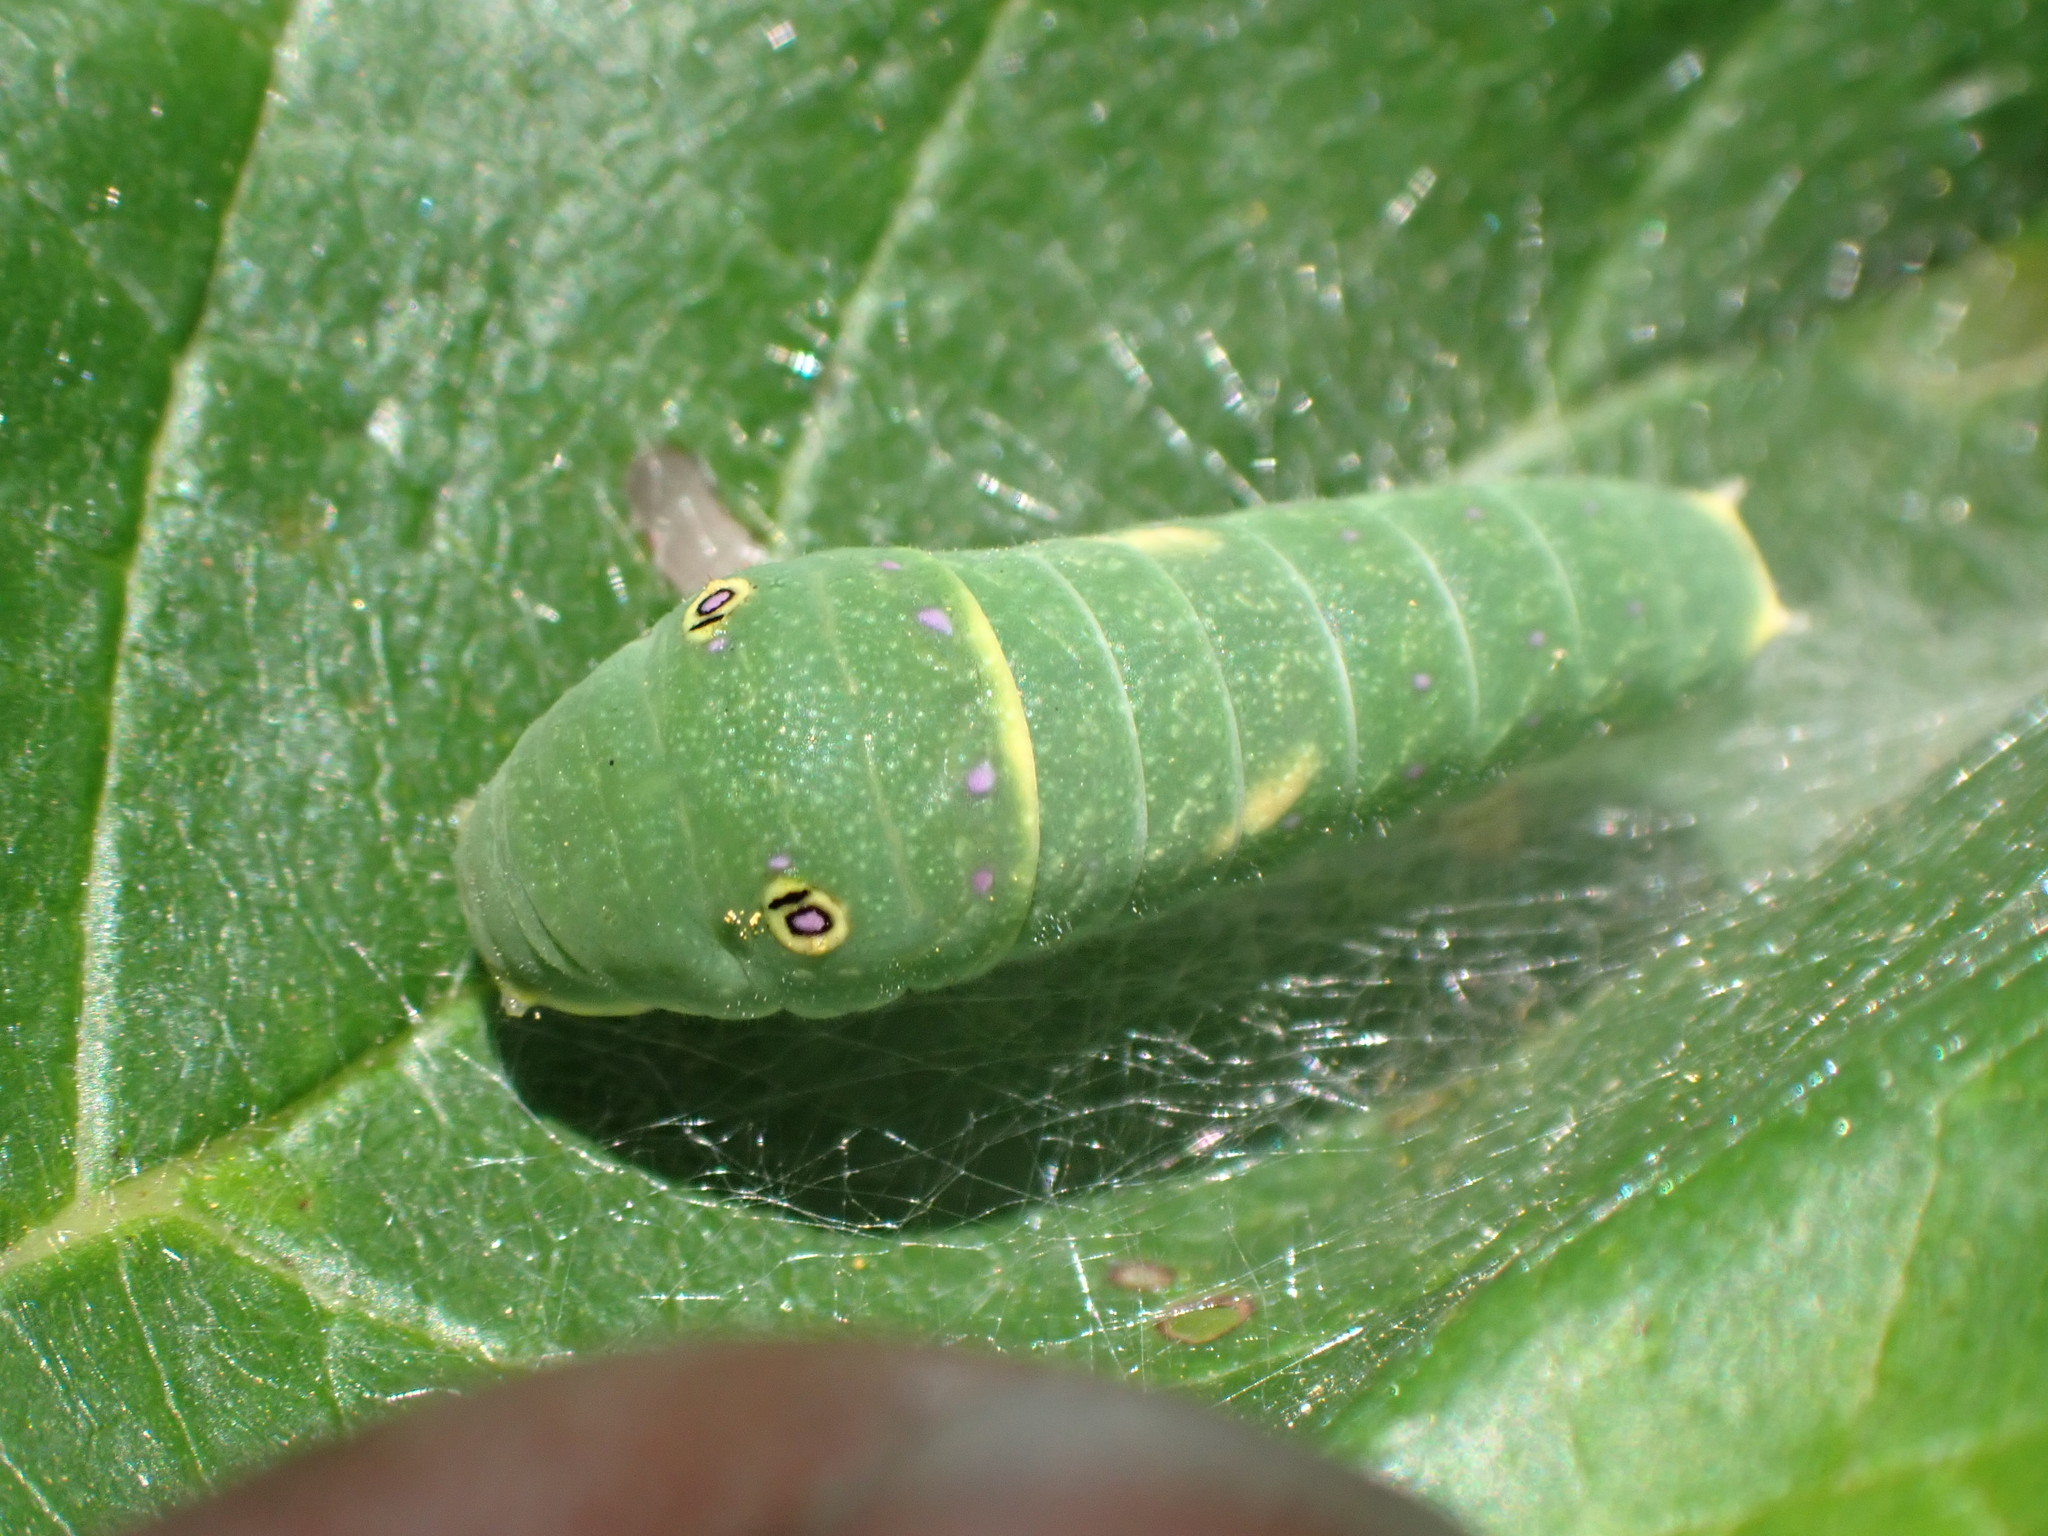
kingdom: Animalia
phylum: Arthropoda
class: Insecta
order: Lepidoptera
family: Papilionidae
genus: Papilio
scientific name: Papilio canadensis
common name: Canadian tiger swallowtail
